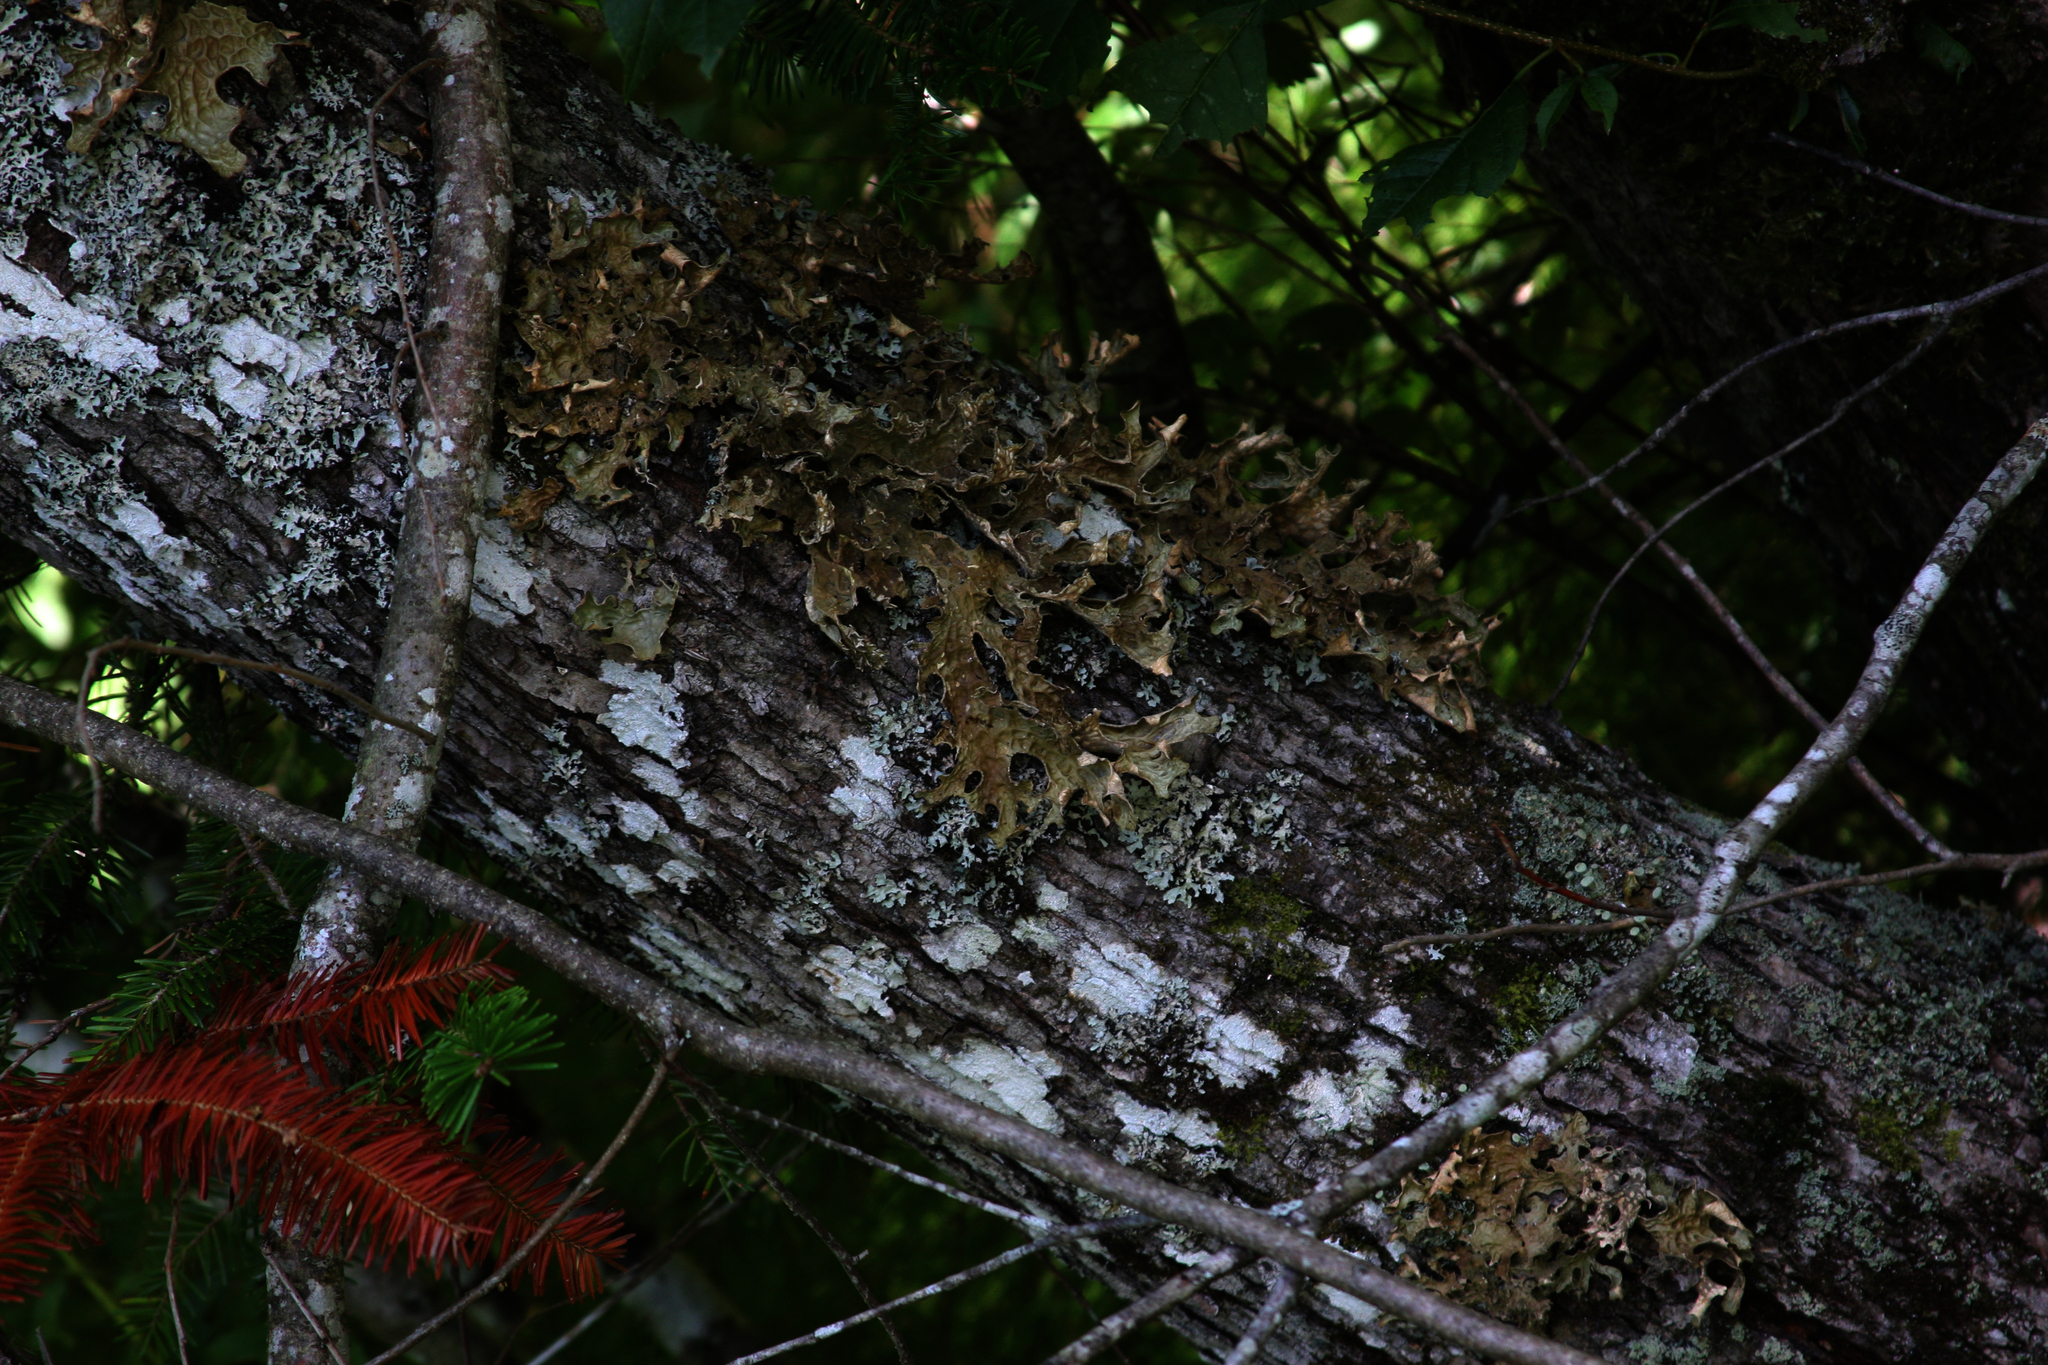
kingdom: Fungi
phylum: Ascomycota
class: Lecanoromycetes
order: Peltigerales
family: Lobariaceae
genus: Lobaria
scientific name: Lobaria pulmonaria
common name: Lungwort
